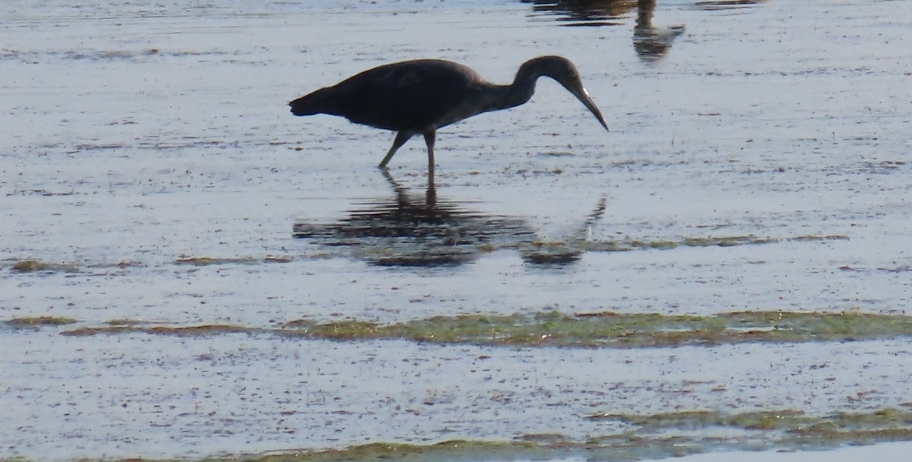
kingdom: Animalia
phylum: Chordata
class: Aves
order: Pelecaniformes
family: Ardeidae
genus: Egretta
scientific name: Egretta caerulea
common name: Little blue heron
